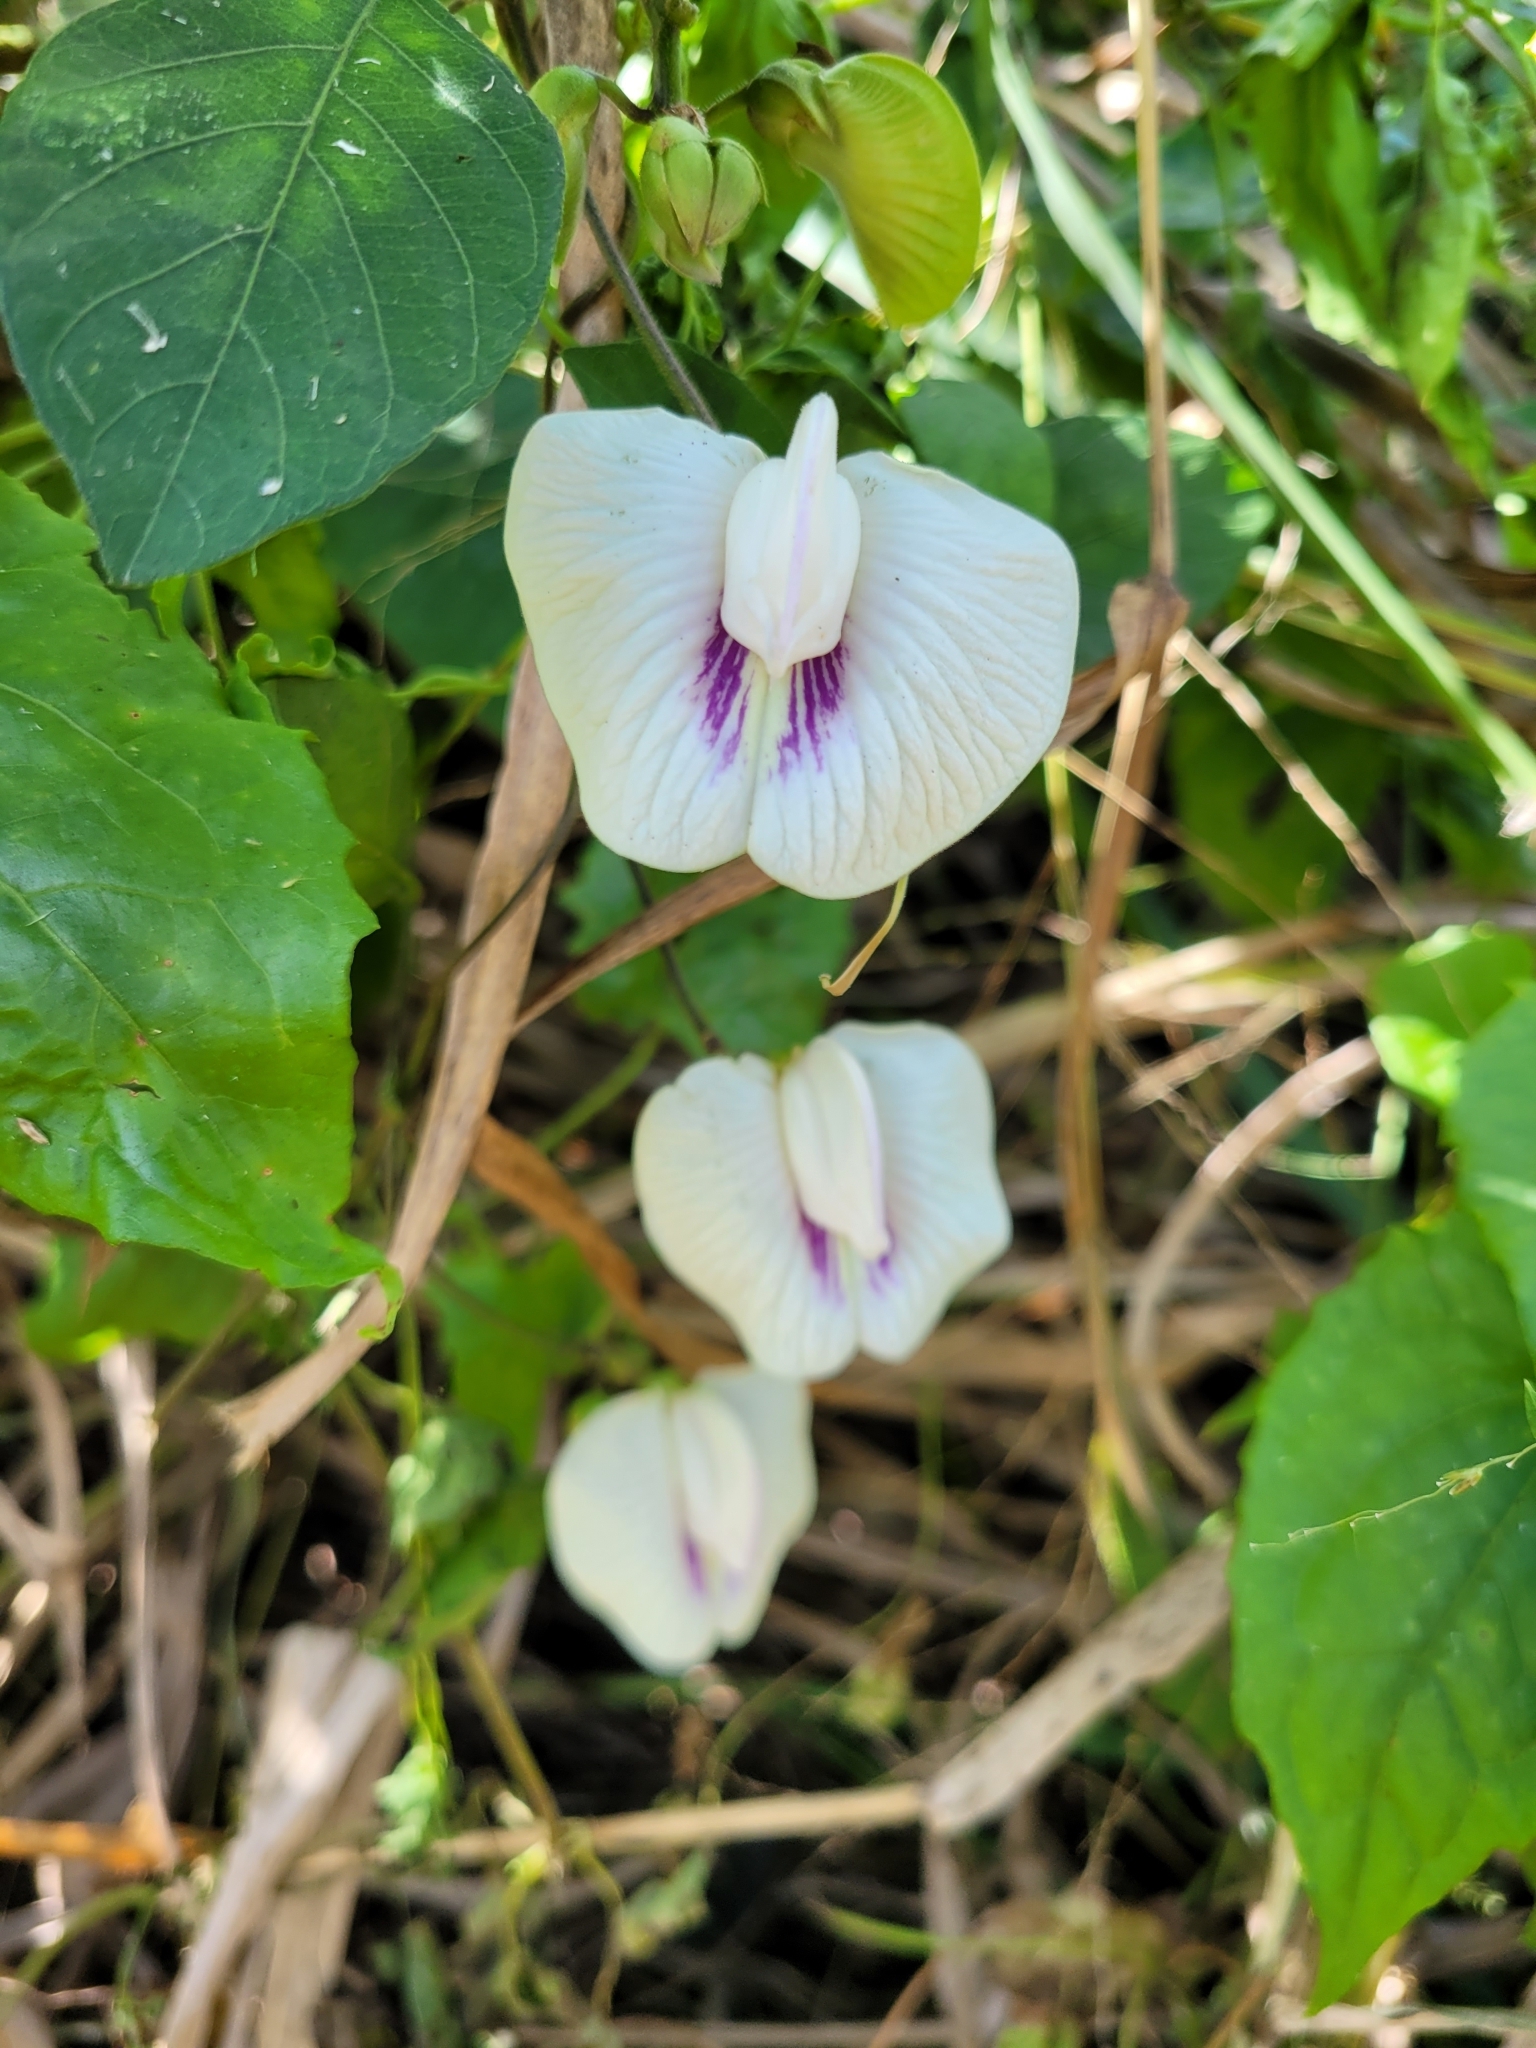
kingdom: Plantae
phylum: Tracheophyta
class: Magnoliopsida
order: Fabales
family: Fabaceae
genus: Centrosema
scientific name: Centrosema pubescens
